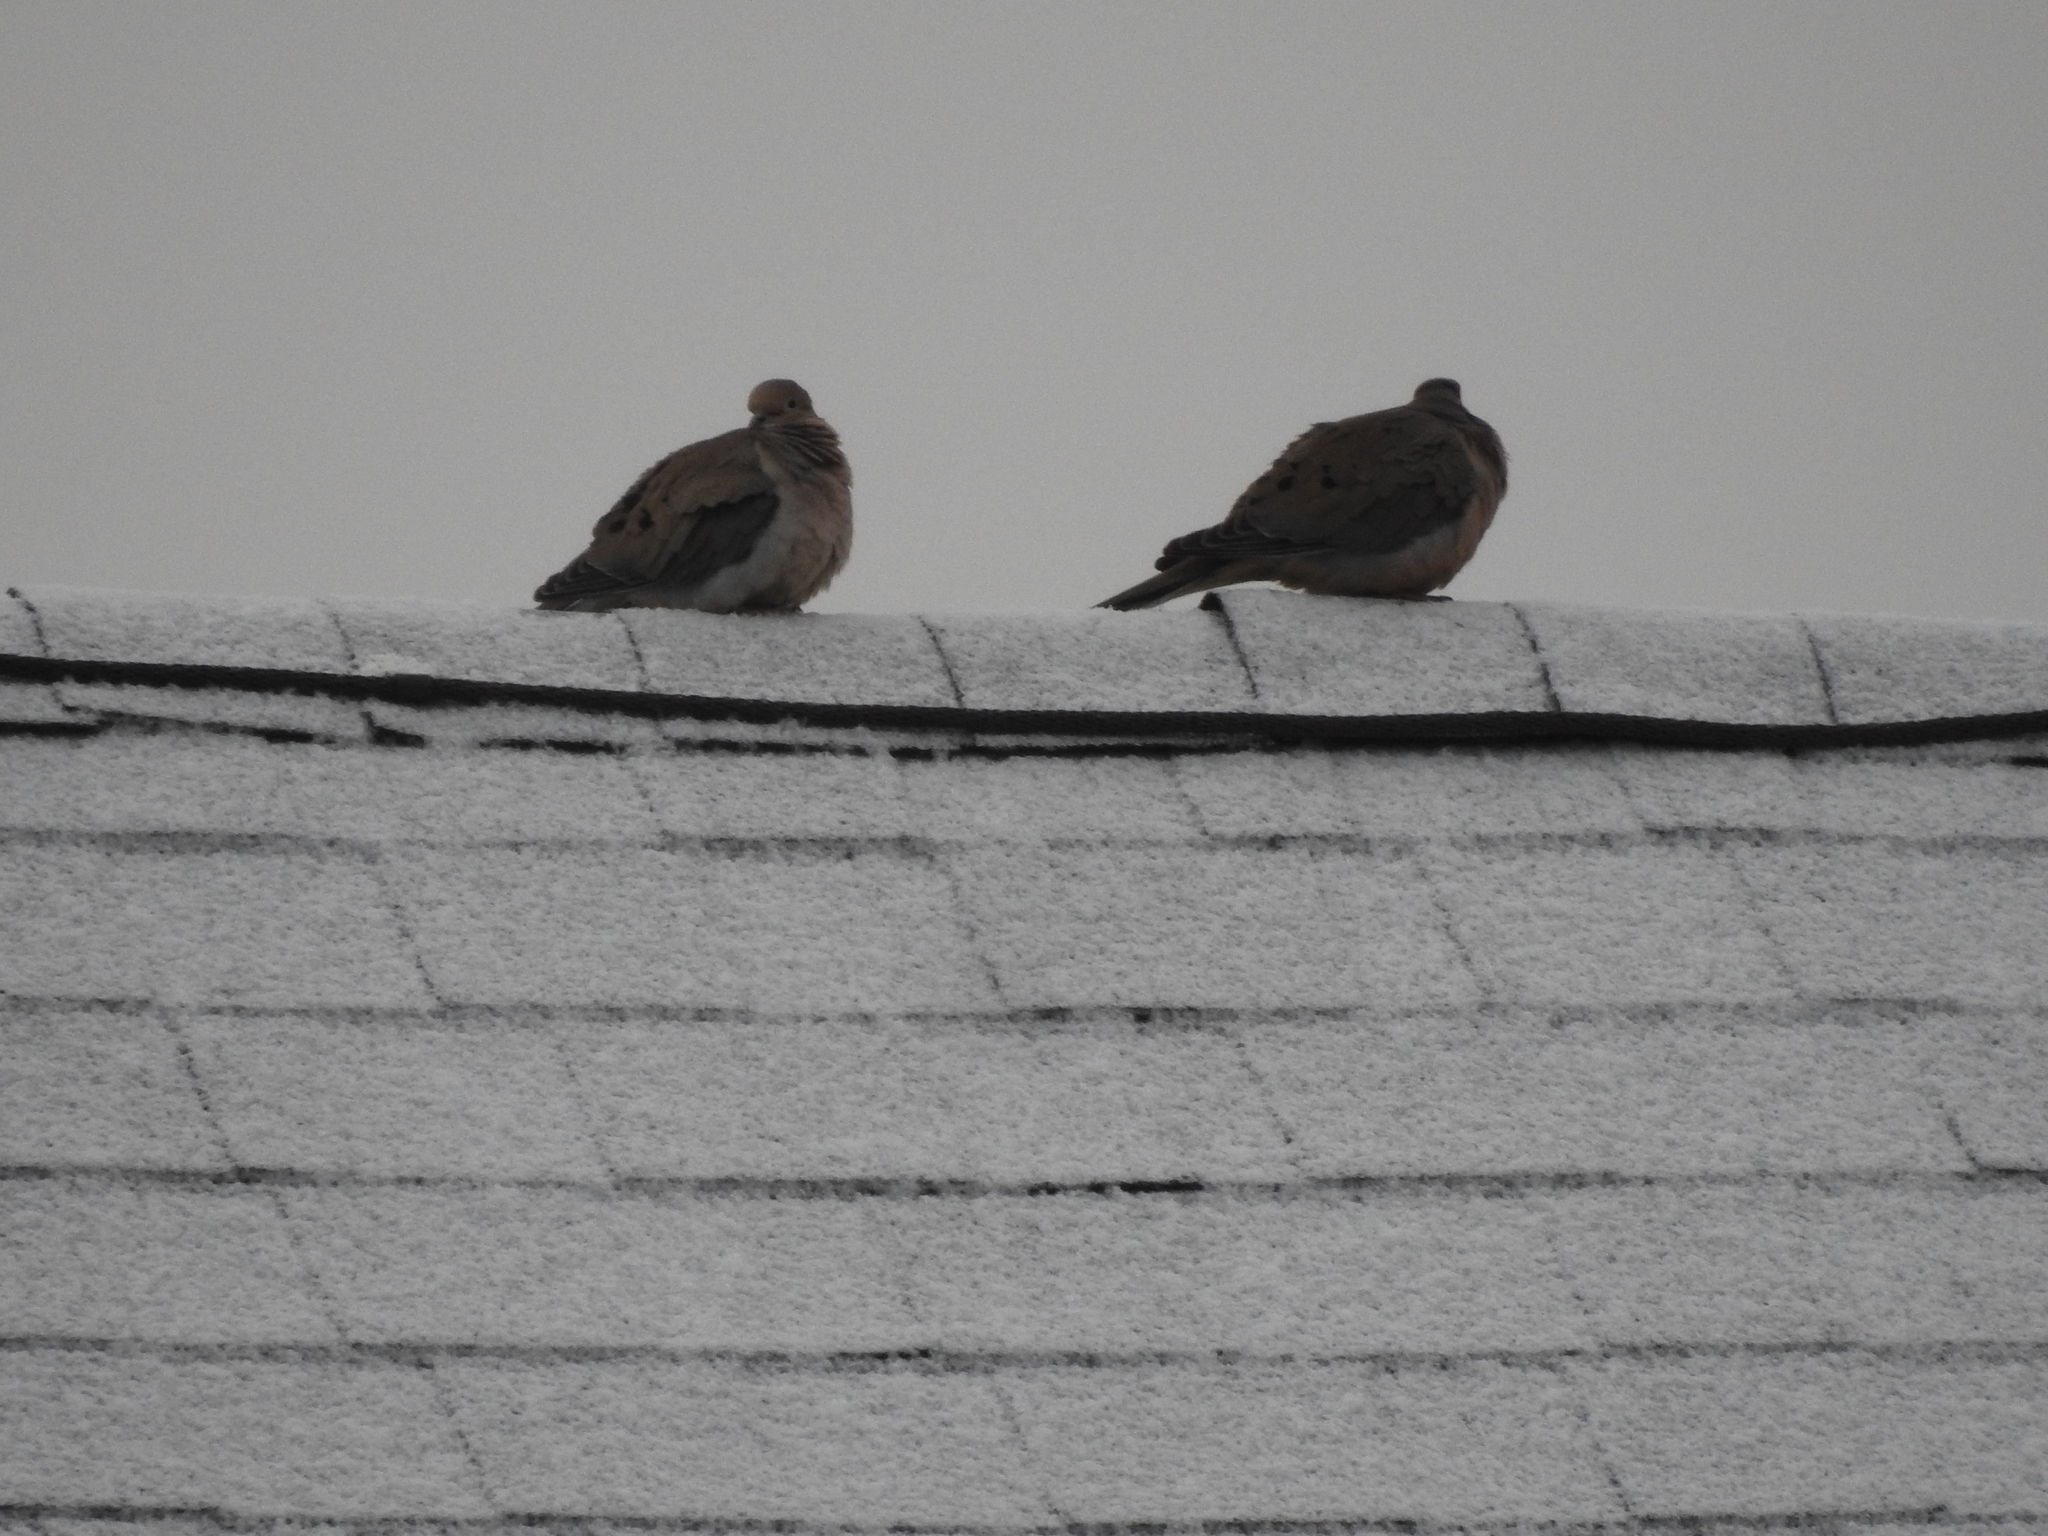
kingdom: Animalia
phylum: Chordata
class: Aves
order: Columbiformes
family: Columbidae
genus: Zenaida
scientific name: Zenaida macroura
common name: Mourning dove
